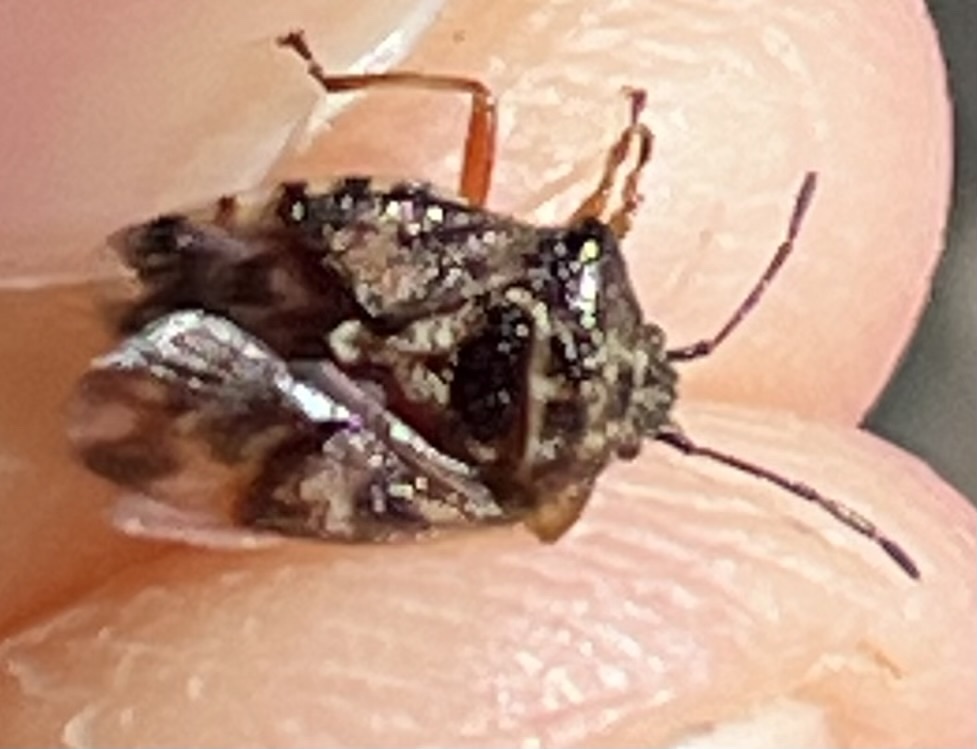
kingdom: Animalia
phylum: Arthropoda
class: Insecta
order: Hemiptera
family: Acanthosomatidae
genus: Elasmucha
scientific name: Elasmucha lateralis
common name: Shield bug
